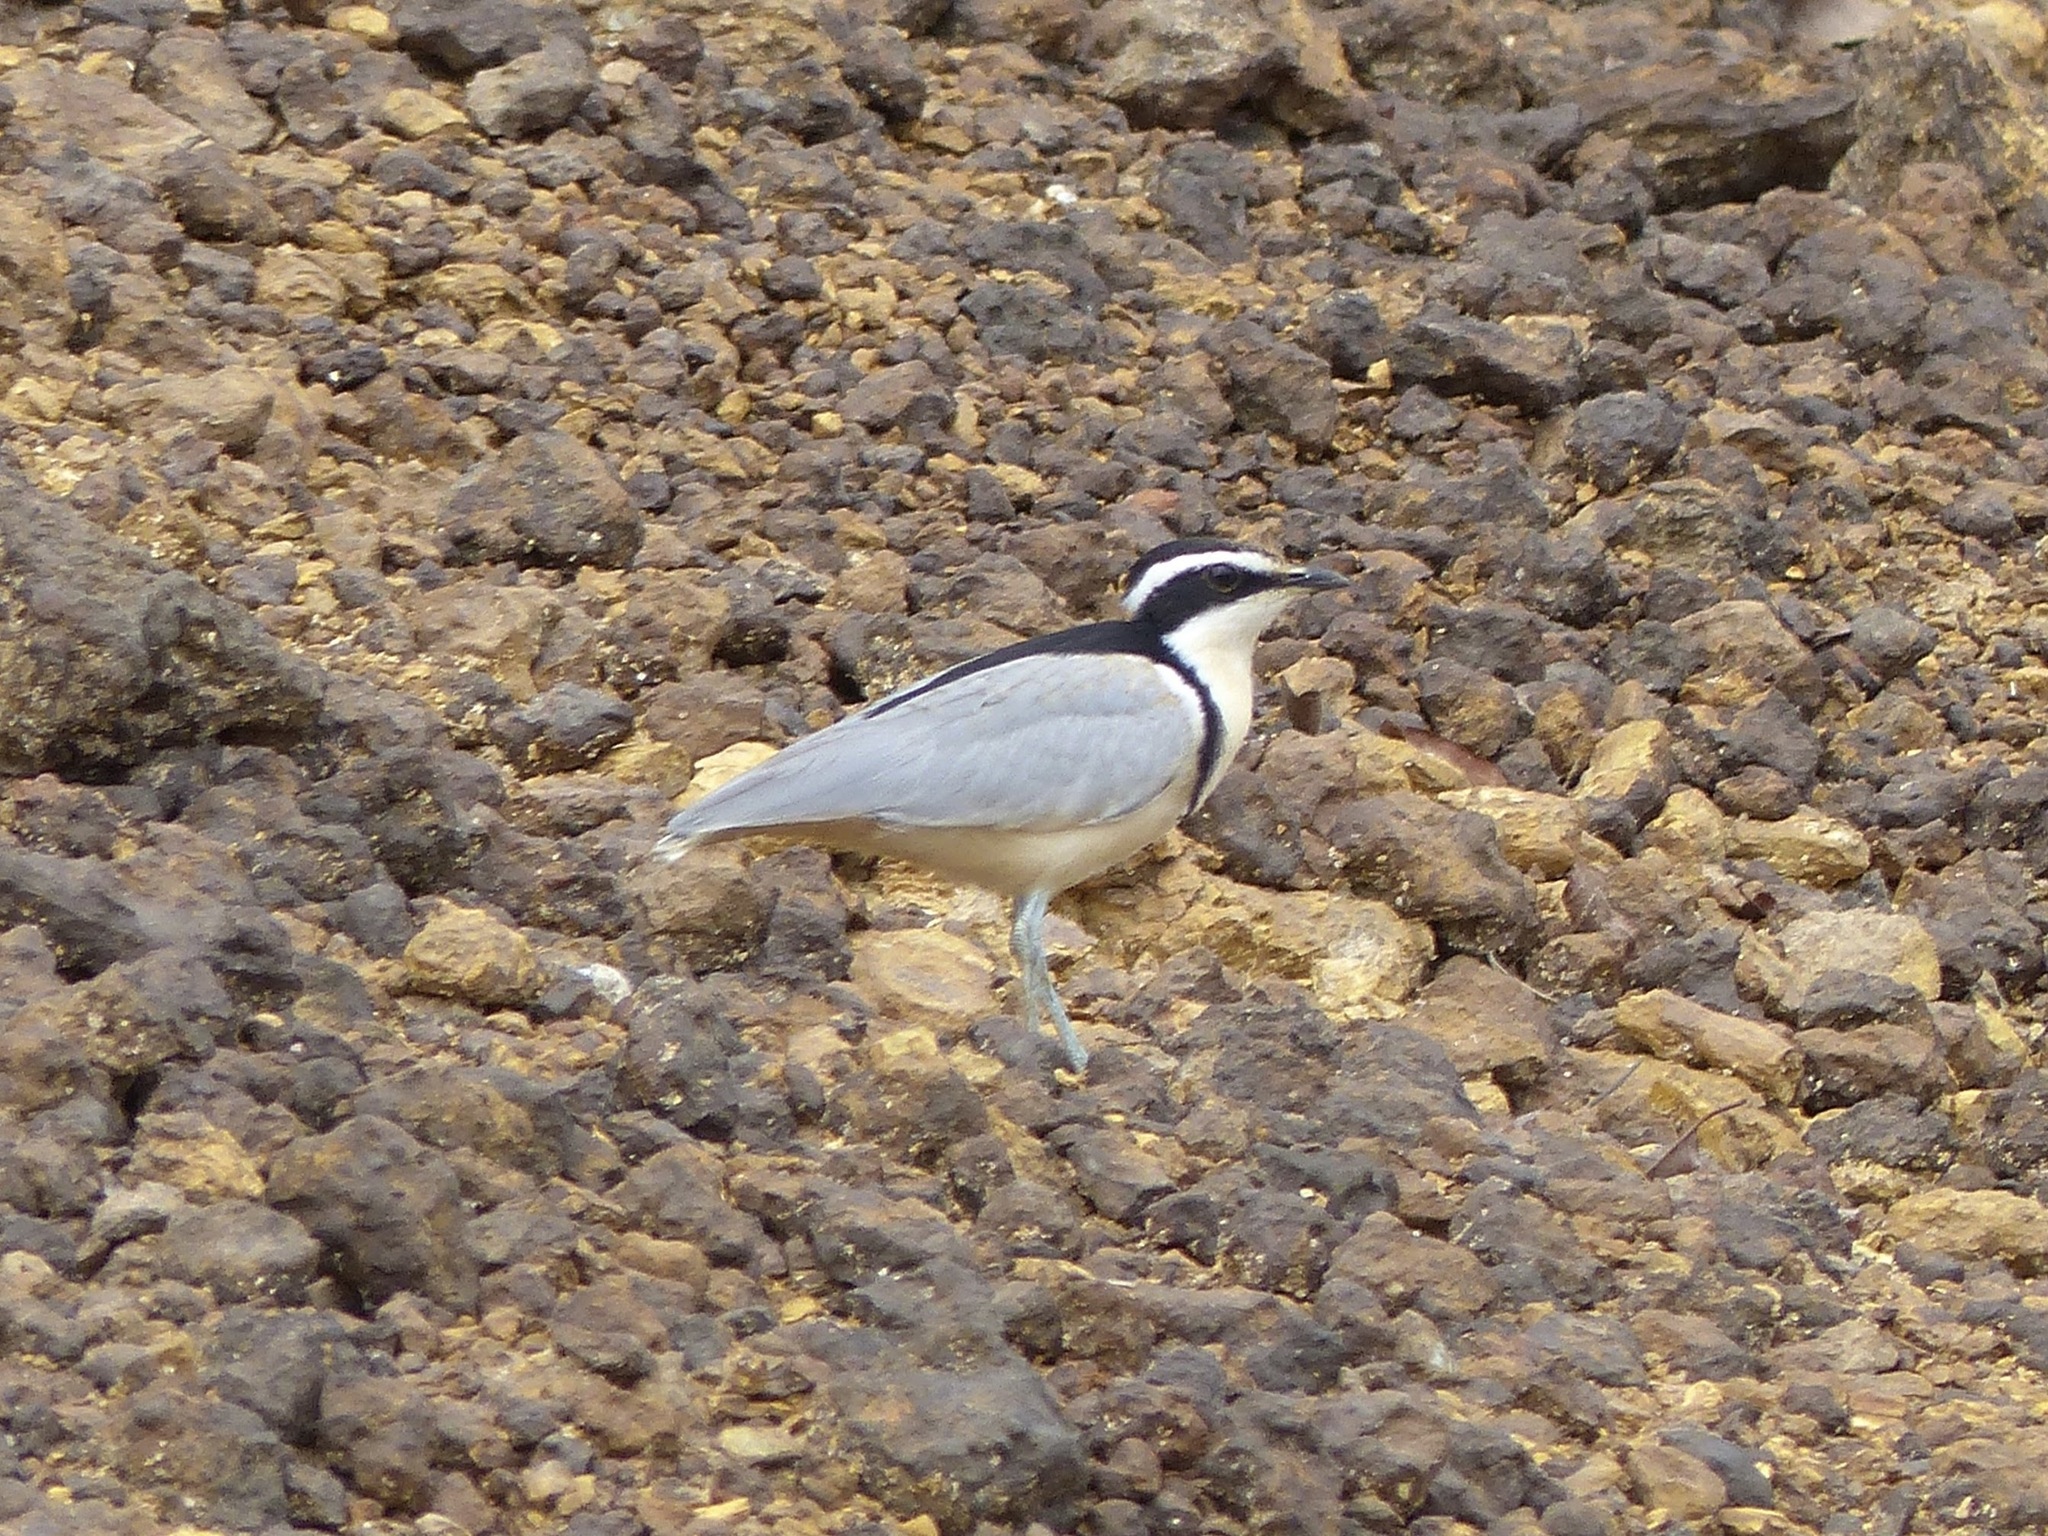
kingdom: Animalia
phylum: Chordata
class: Aves
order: Charadriiformes
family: Pluvianidae
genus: Pluvianus
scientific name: Pluvianus aegyptius
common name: Egyptian plover
